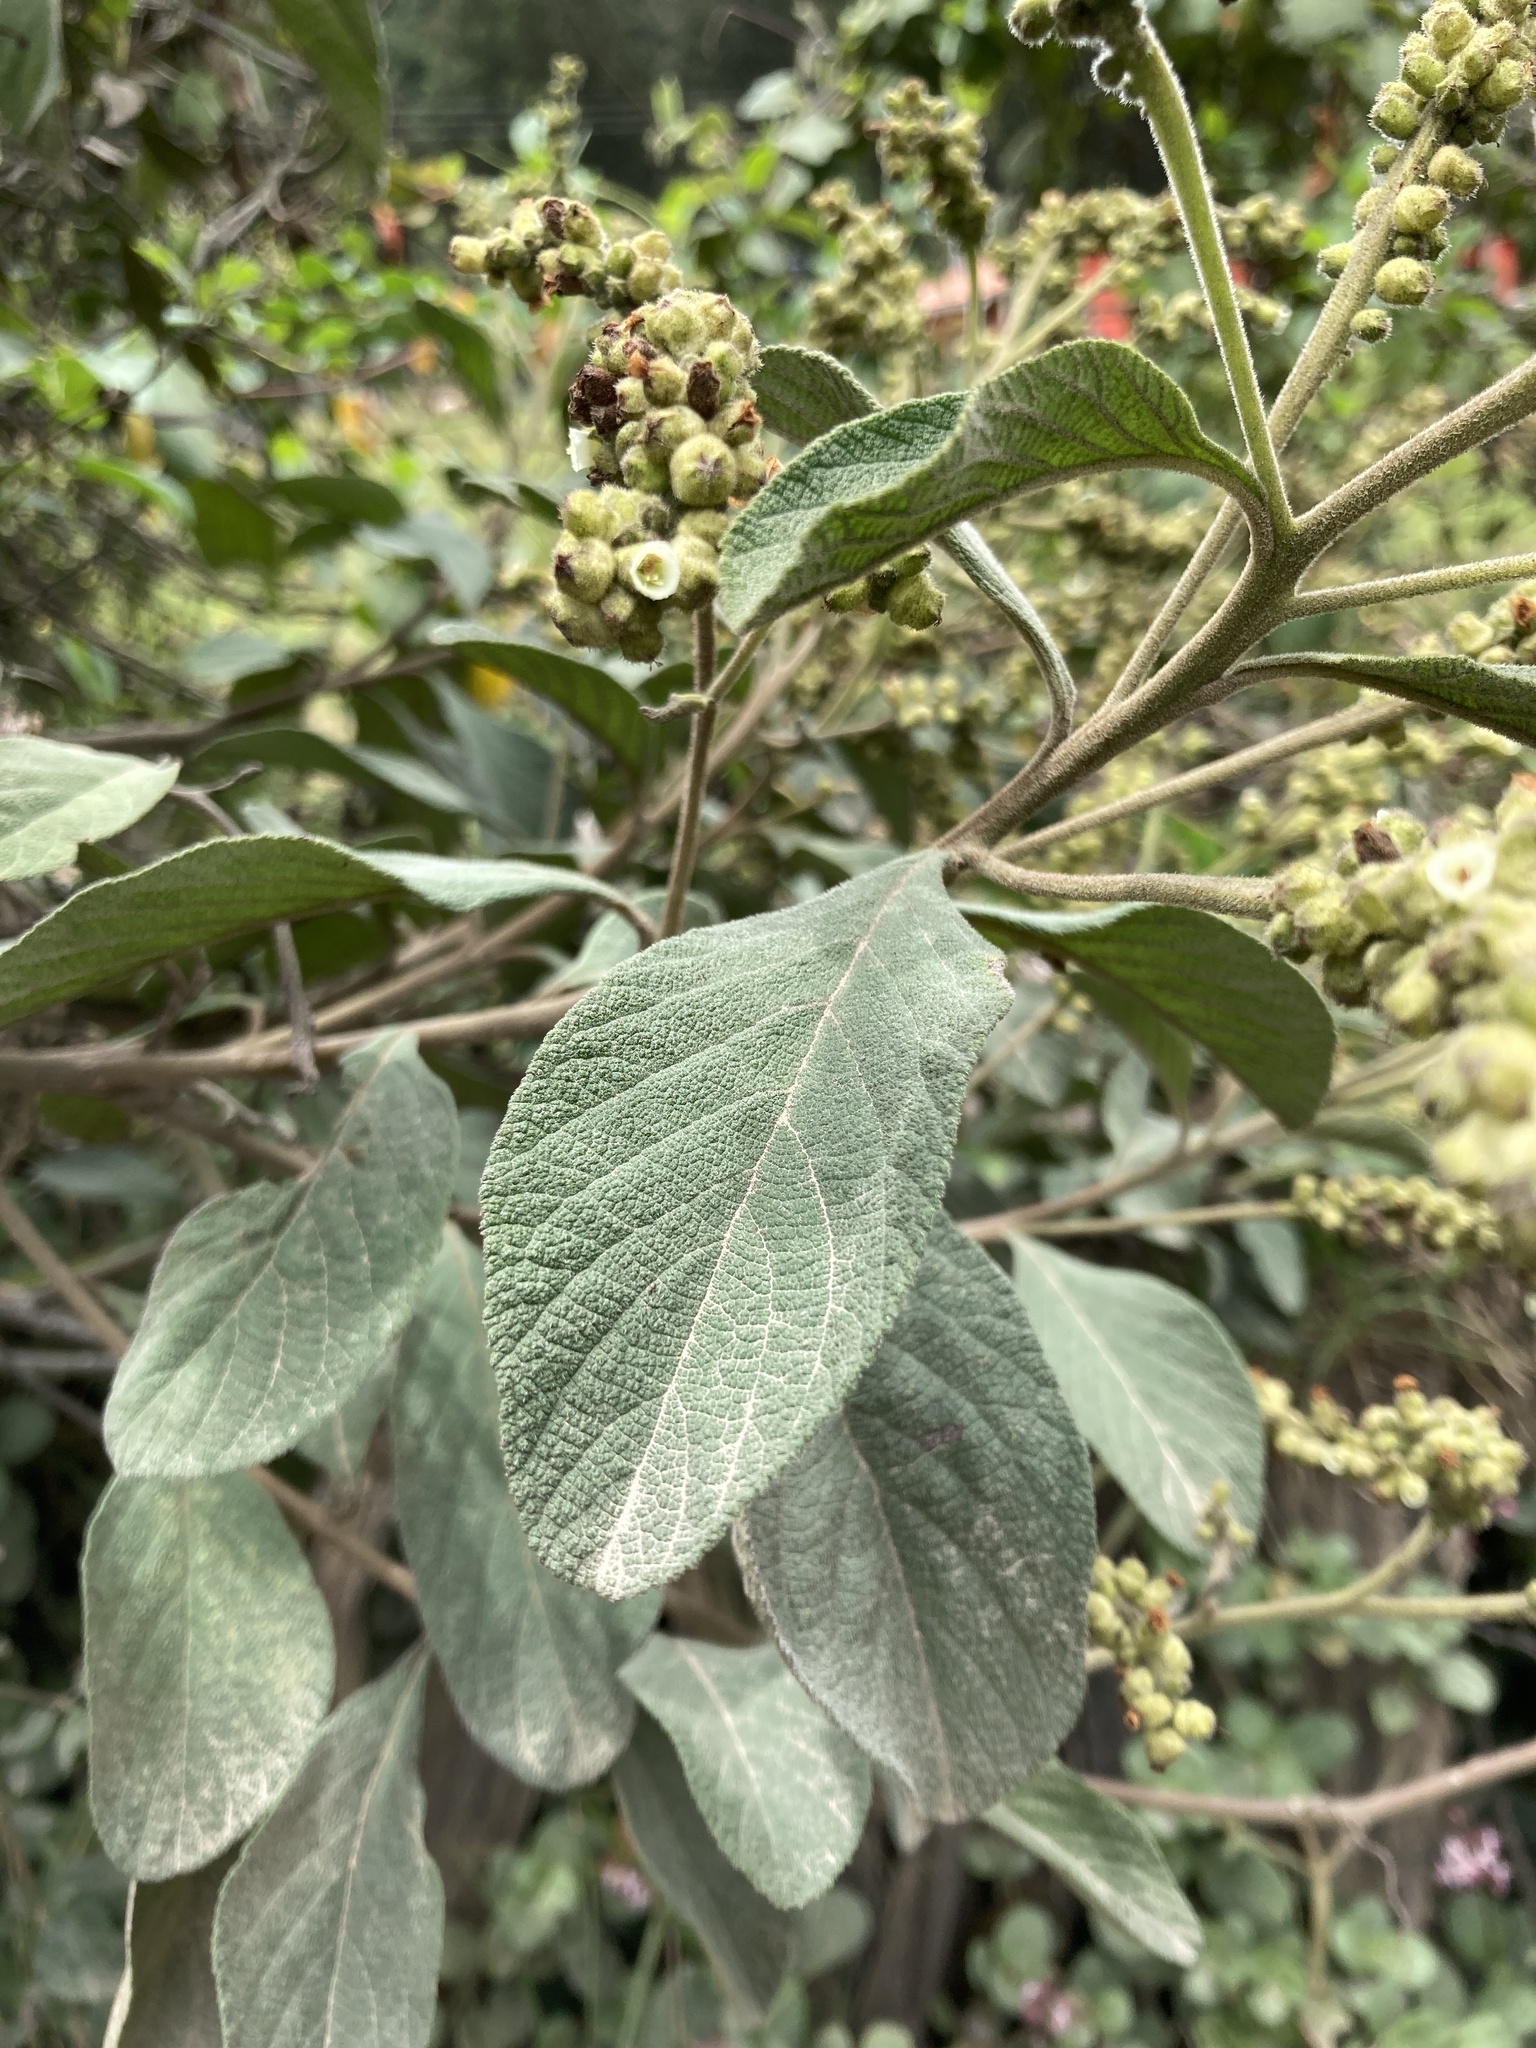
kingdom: Plantae
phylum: Tracheophyta
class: Magnoliopsida
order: Boraginales
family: Cordiaceae
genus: Varronia
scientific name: Varronia cylindrostachya
